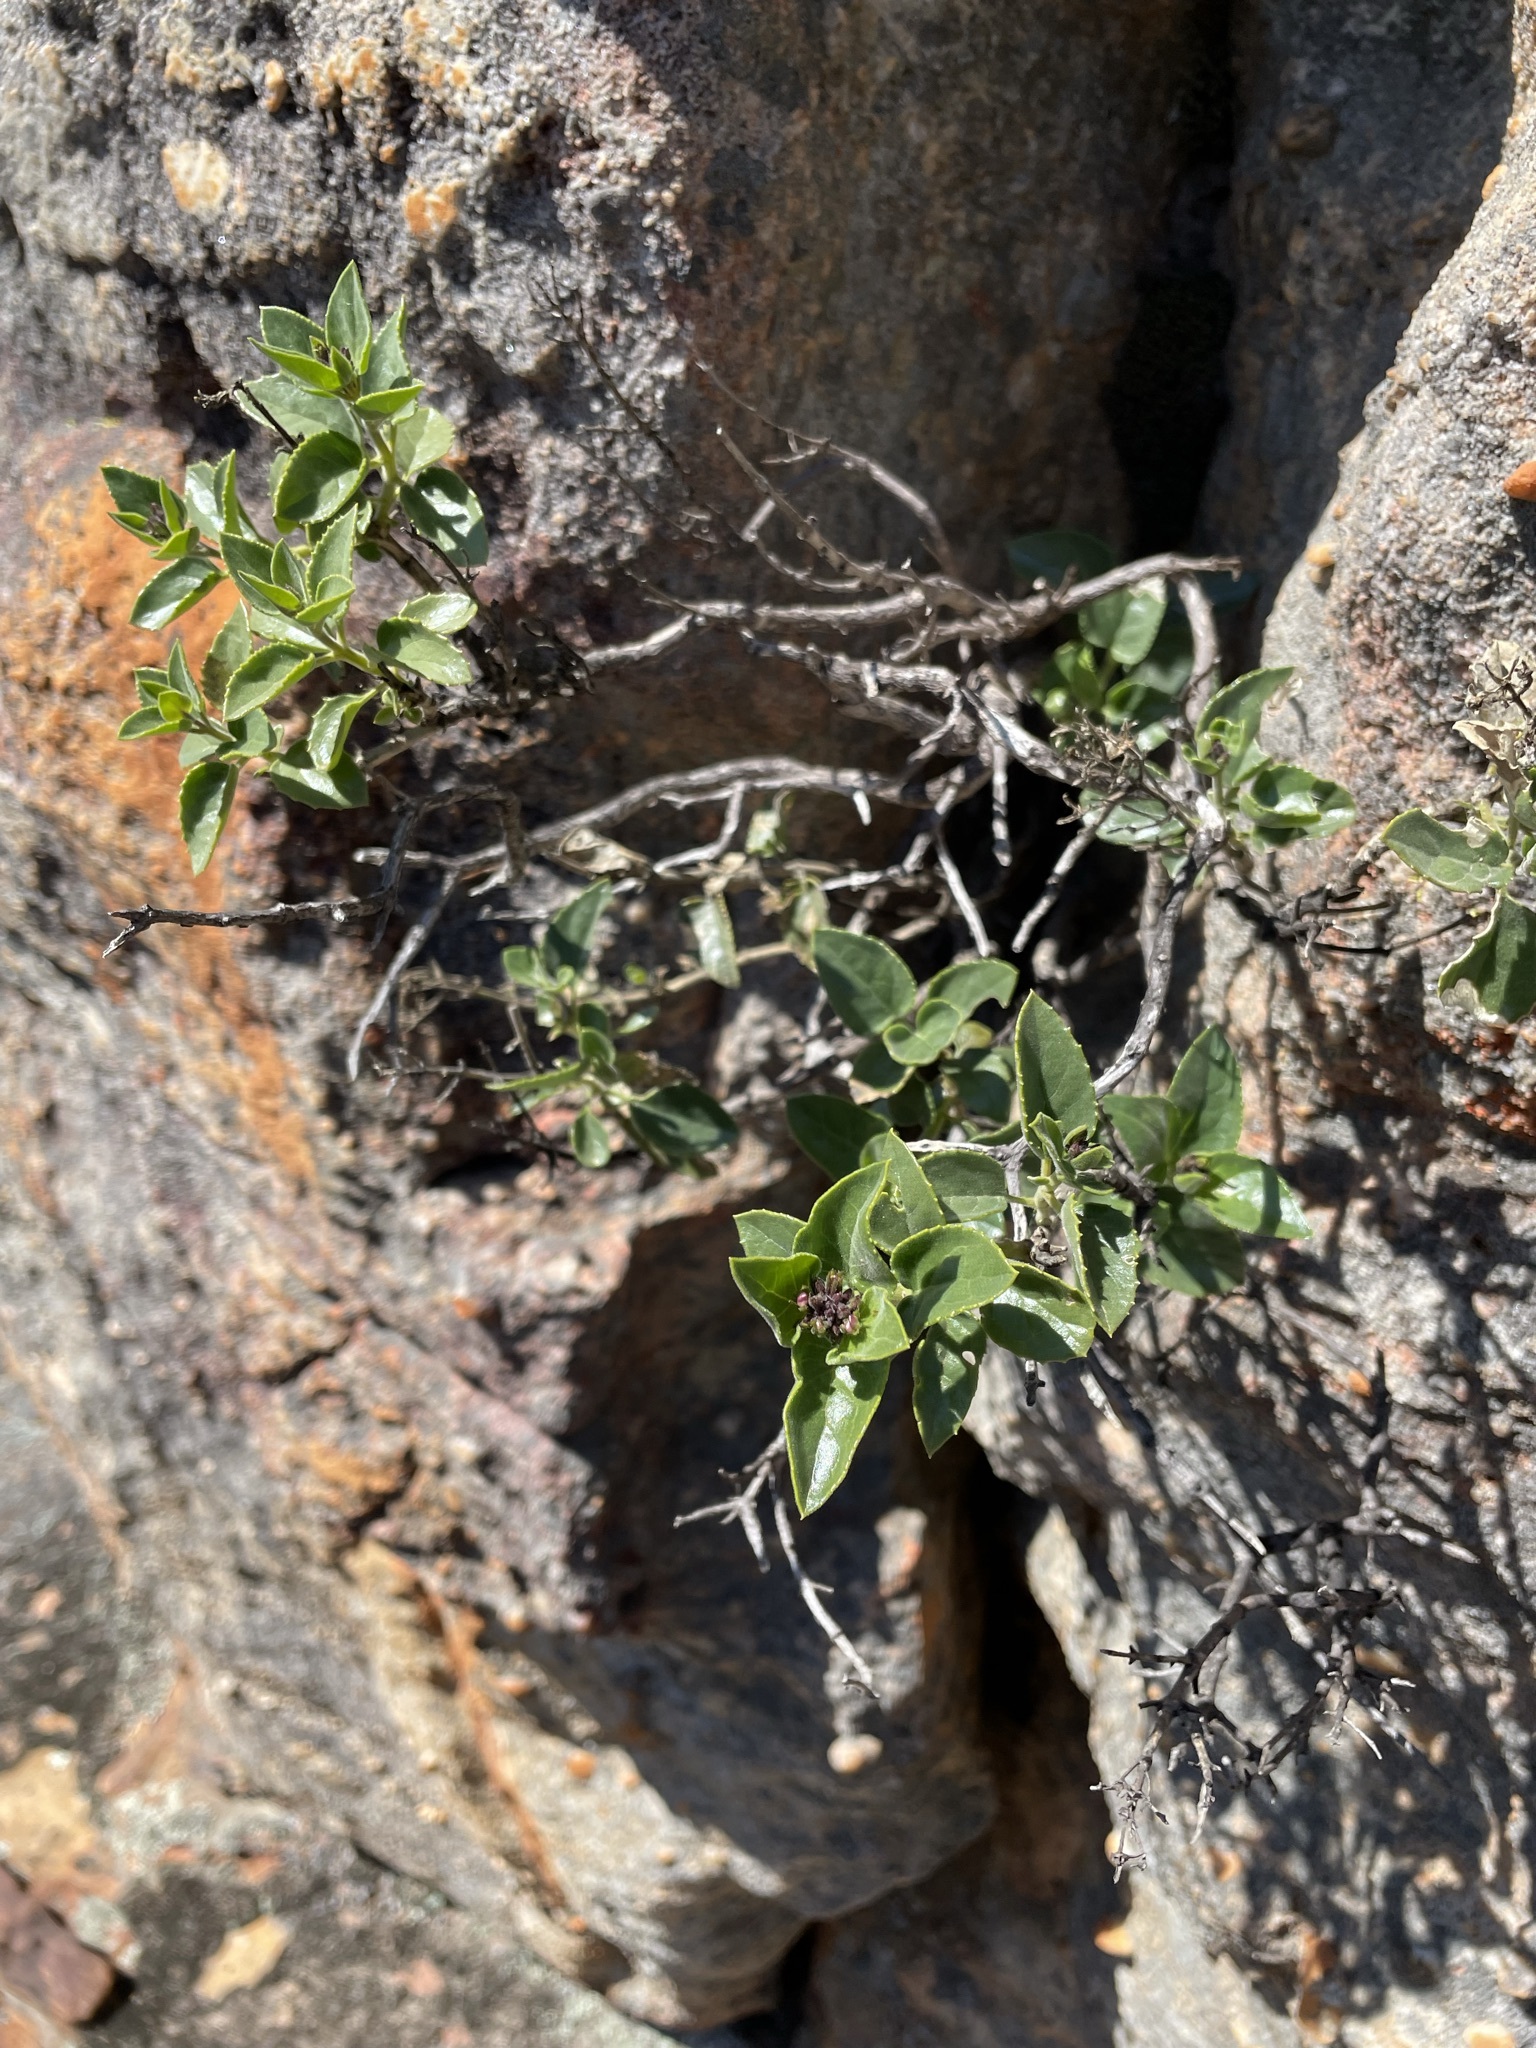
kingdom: Plantae
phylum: Tracheophyta
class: Magnoliopsida
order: Lamiales
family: Scrophulariaceae
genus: Teedia
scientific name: Teedia pubescens
